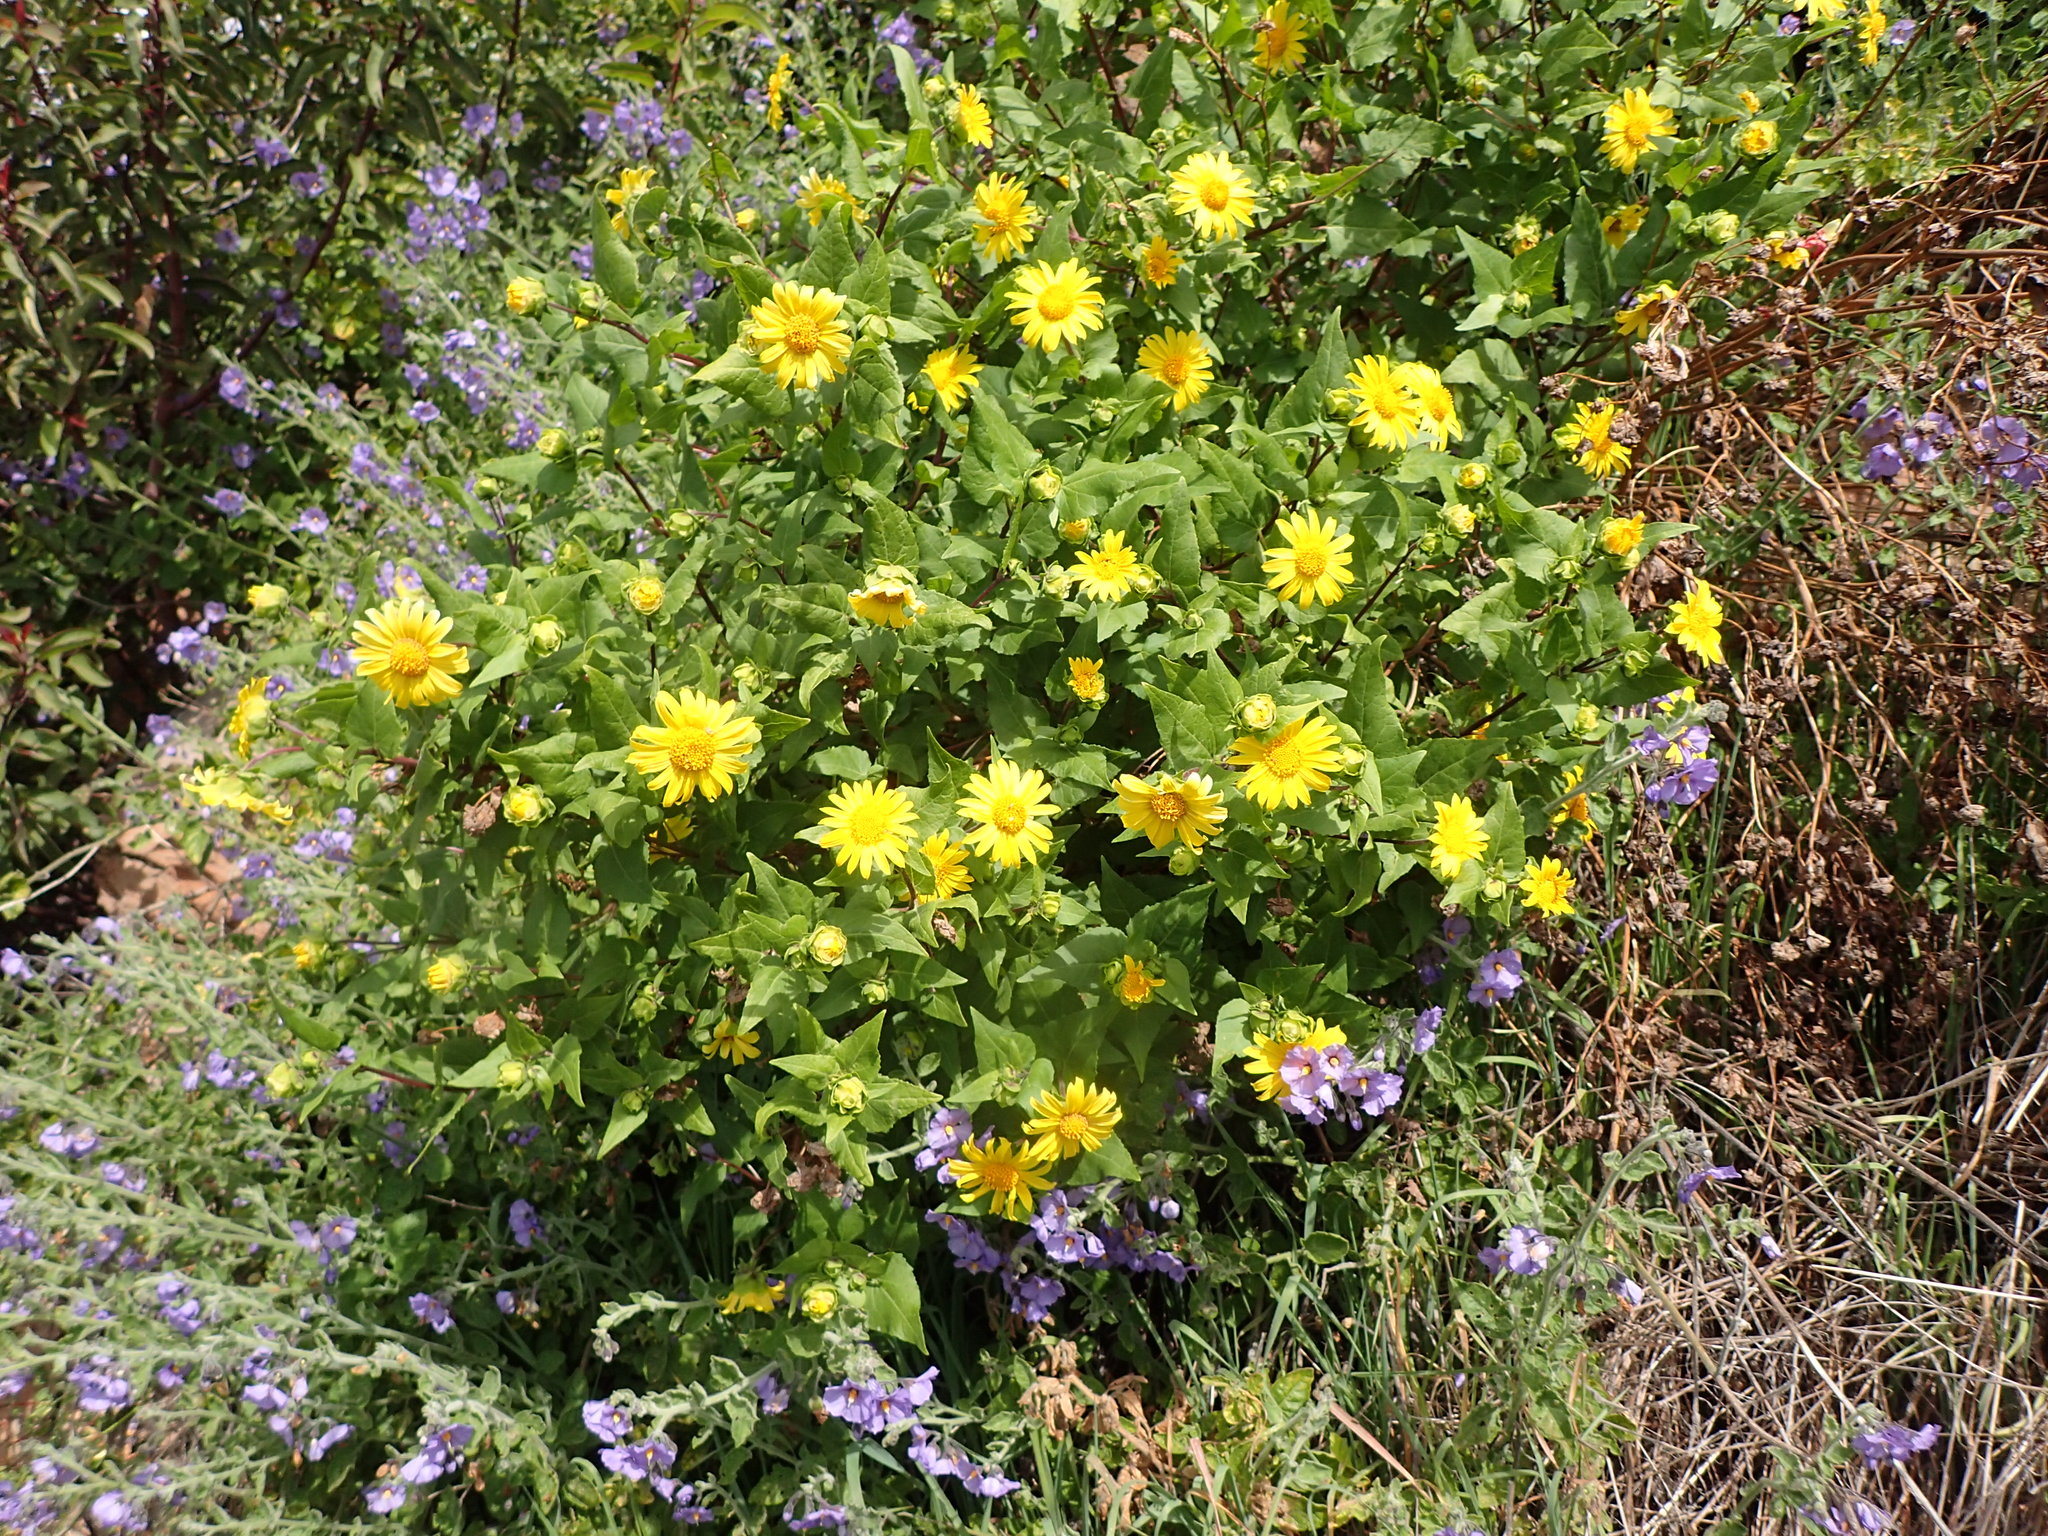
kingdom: Plantae
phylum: Tracheophyta
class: Magnoliopsida
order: Asterales
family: Asteraceae
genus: Venegasia
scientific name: Venegasia carpesioides
